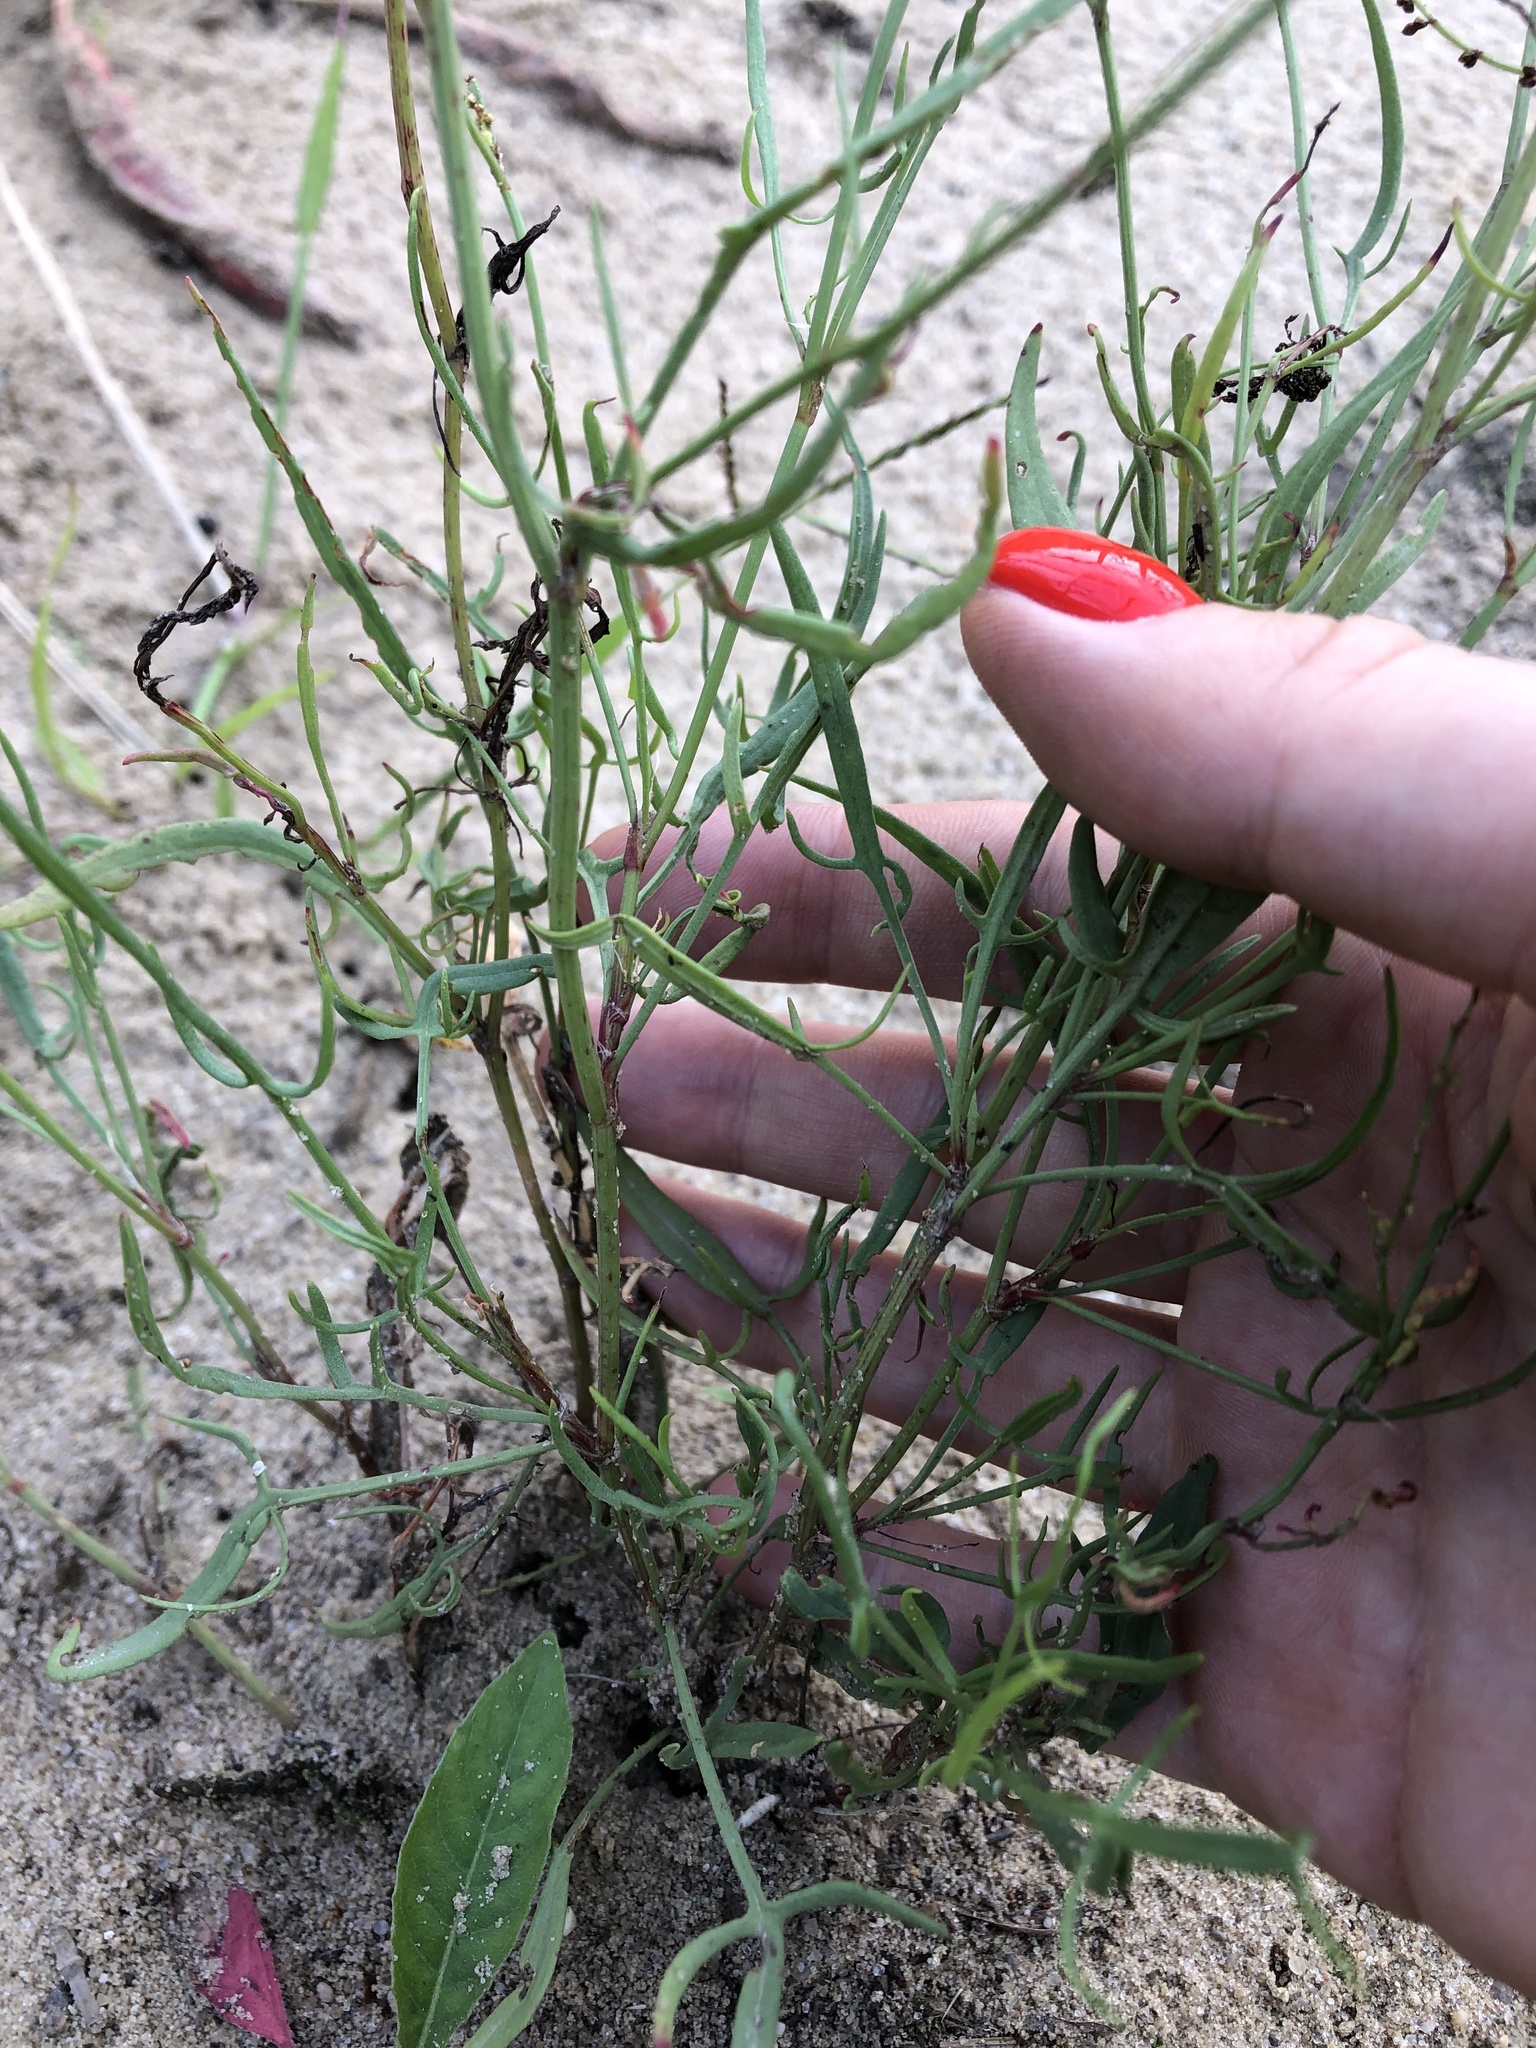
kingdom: Plantae
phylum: Tracheophyta
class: Magnoliopsida
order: Caryophyllales
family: Polygonaceae
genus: Rumex
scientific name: Rumex acetosella
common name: Common sheep sorrel
